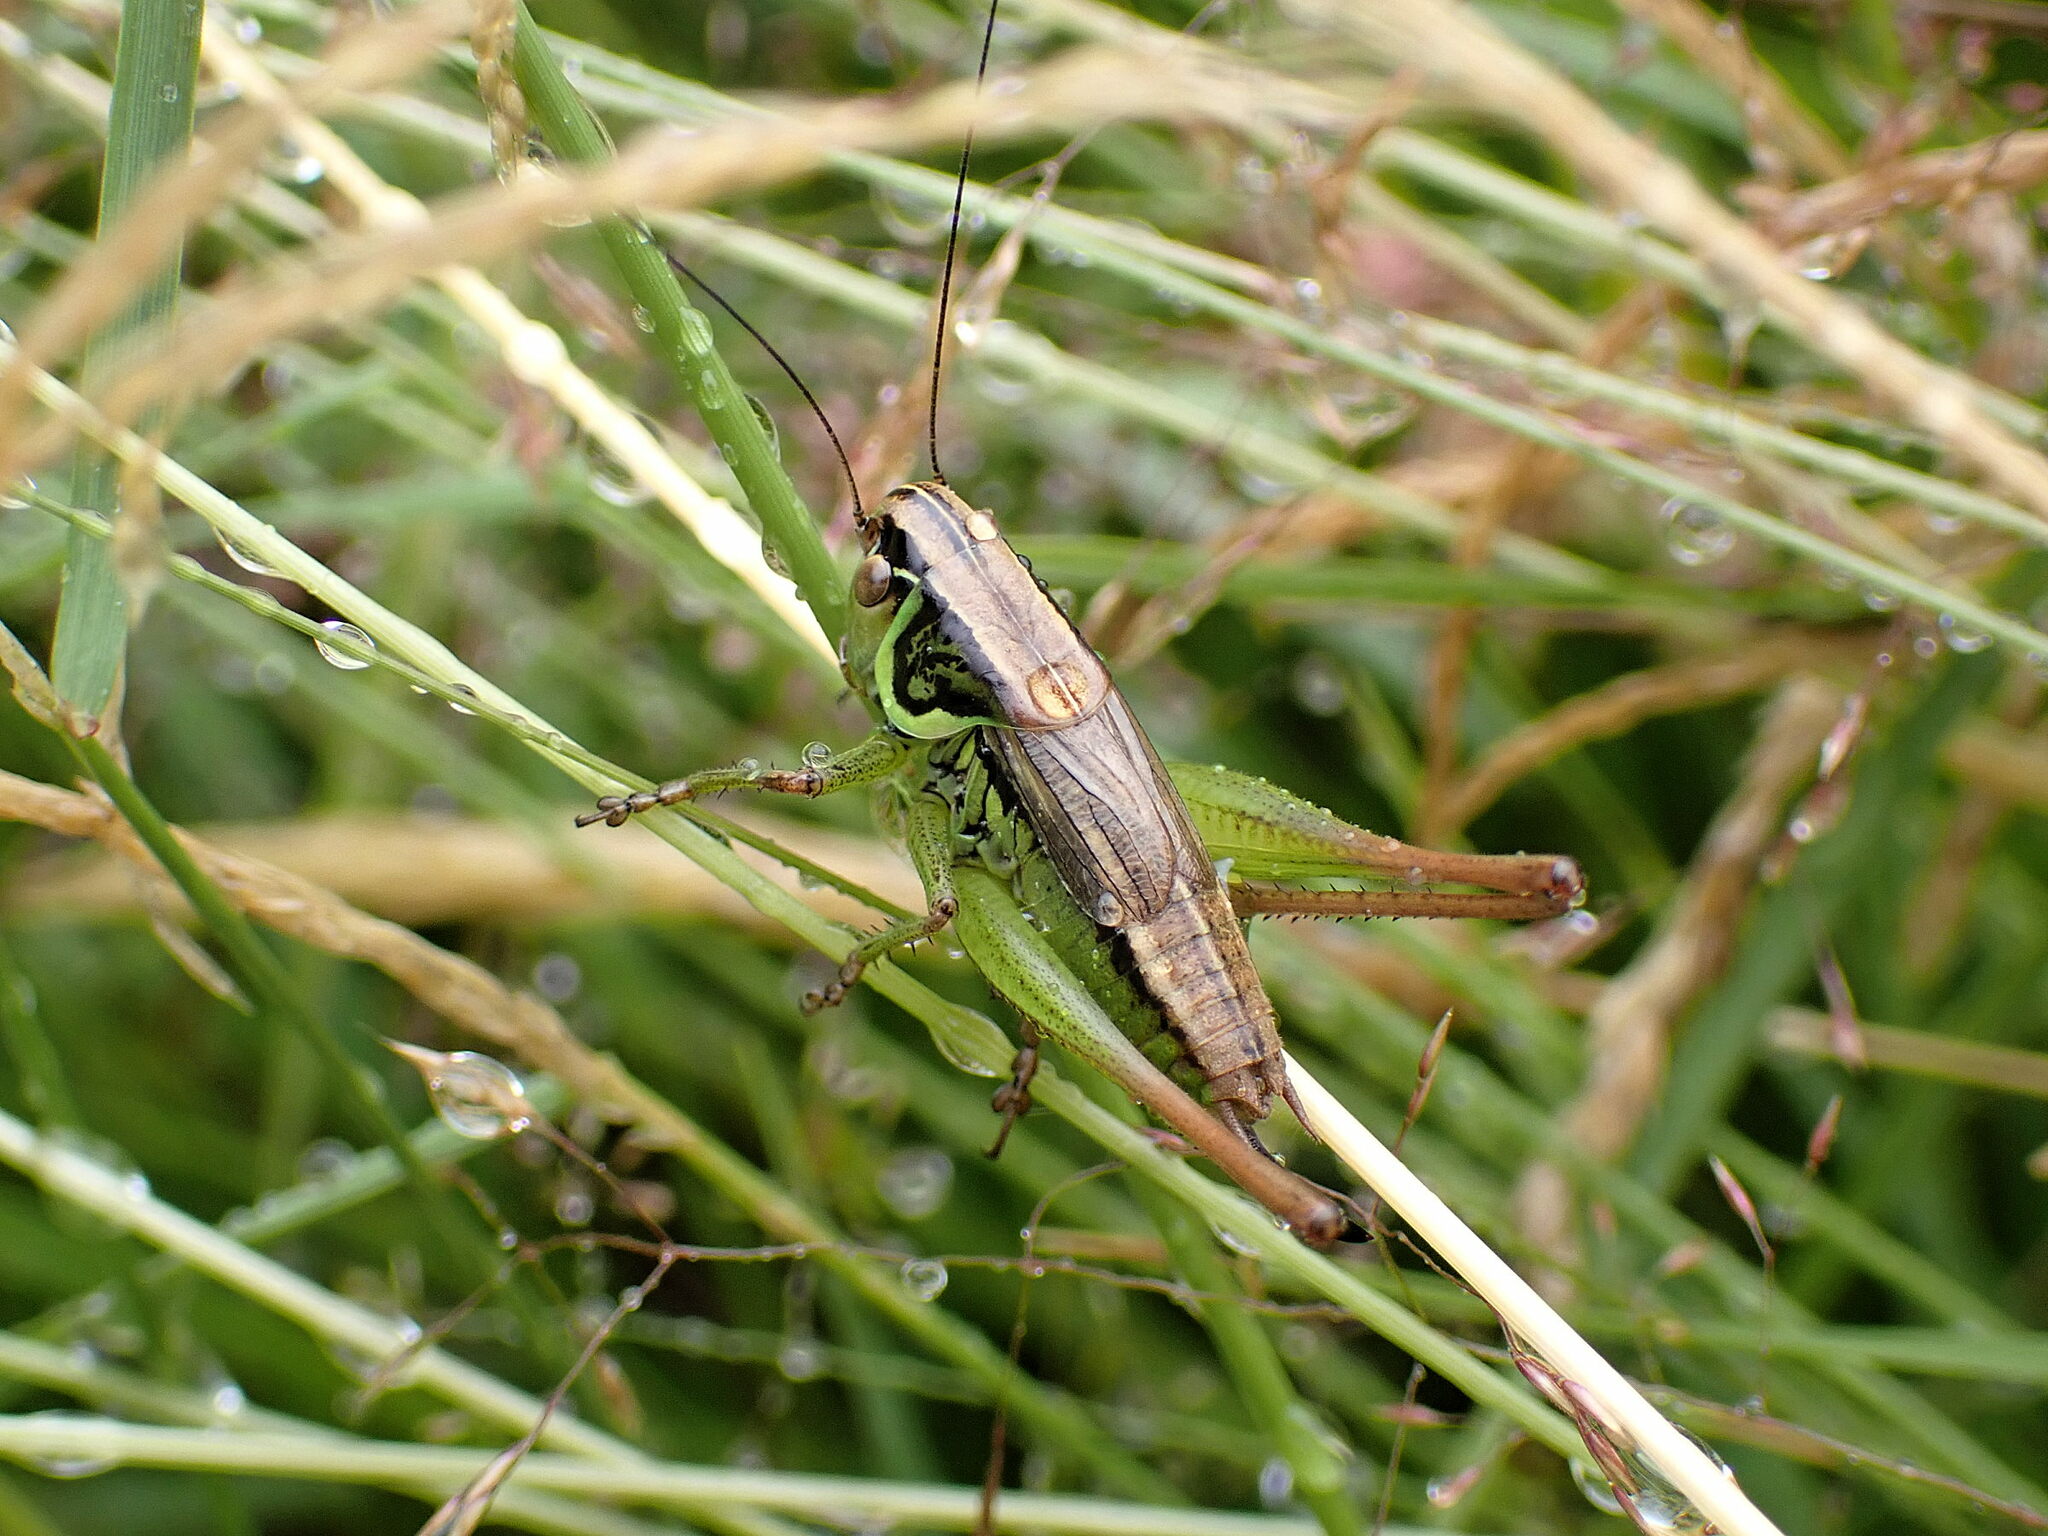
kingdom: Animalia
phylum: Arthropoda
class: Insecta
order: Orthoptera
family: Tettigoniidae
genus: Roeseliana
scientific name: Roeseliana roeselii
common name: Roesel's bush cricket
